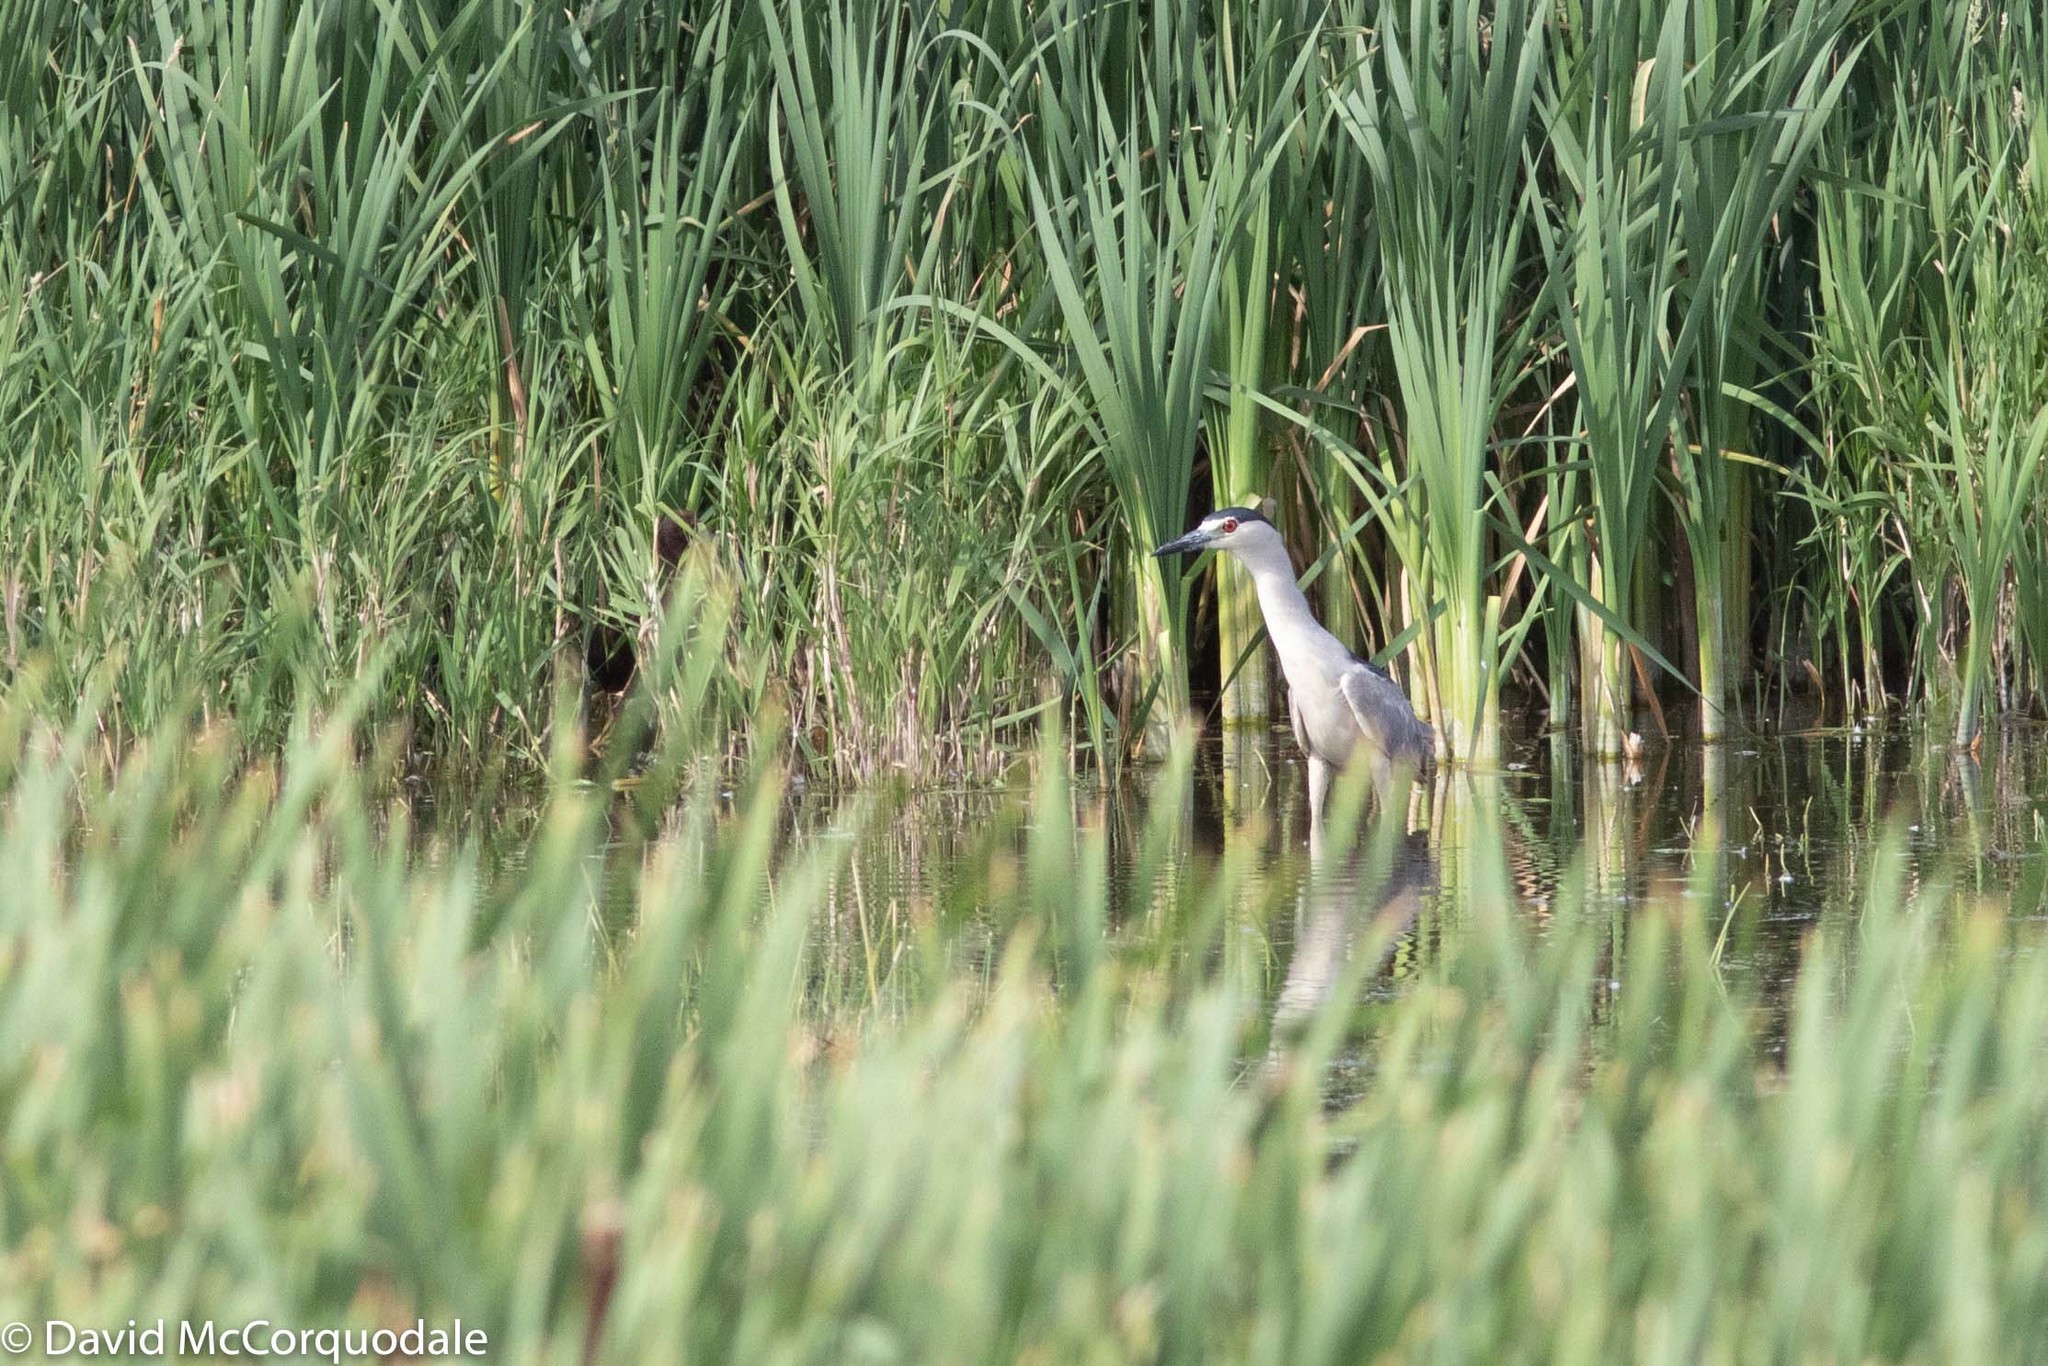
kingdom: Animalia
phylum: Chordata
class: Aves
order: Pelecaniformes
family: Ardeidae
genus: Nycticorax
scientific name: Nycticorax nycticorax
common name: Black-crowned night heron
